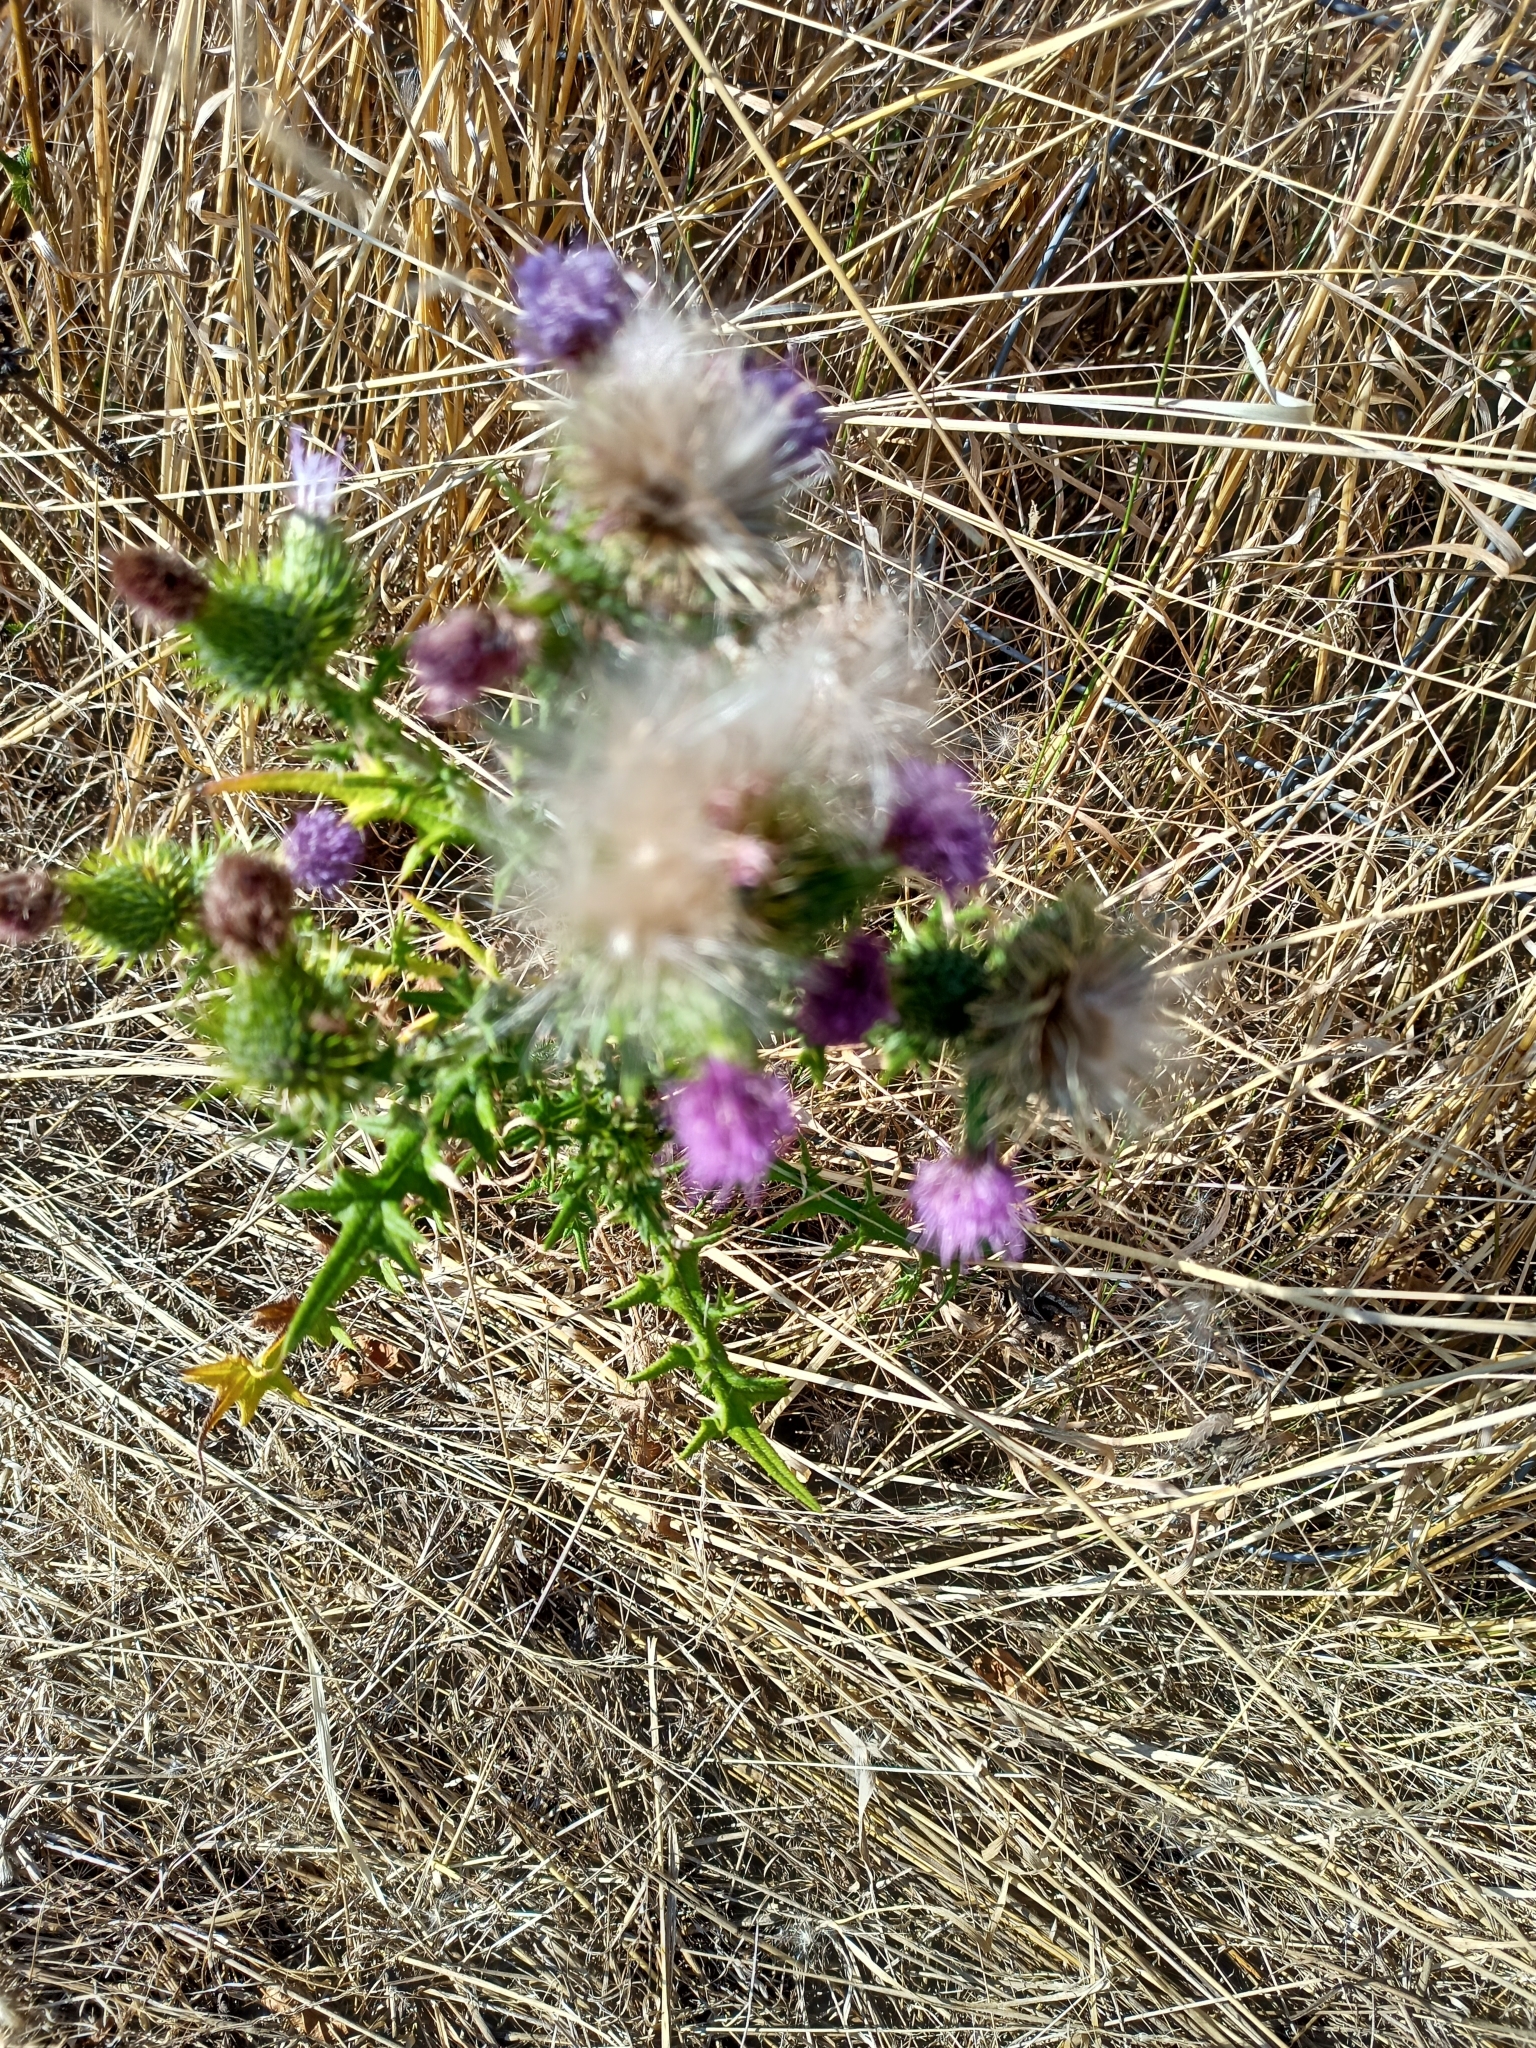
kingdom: Plantae
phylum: Tracheophyta
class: Magnoliopsida
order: Asterales
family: Asteraceae
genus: Cirsium
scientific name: Cirsium vulgare
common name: Bull thistle
